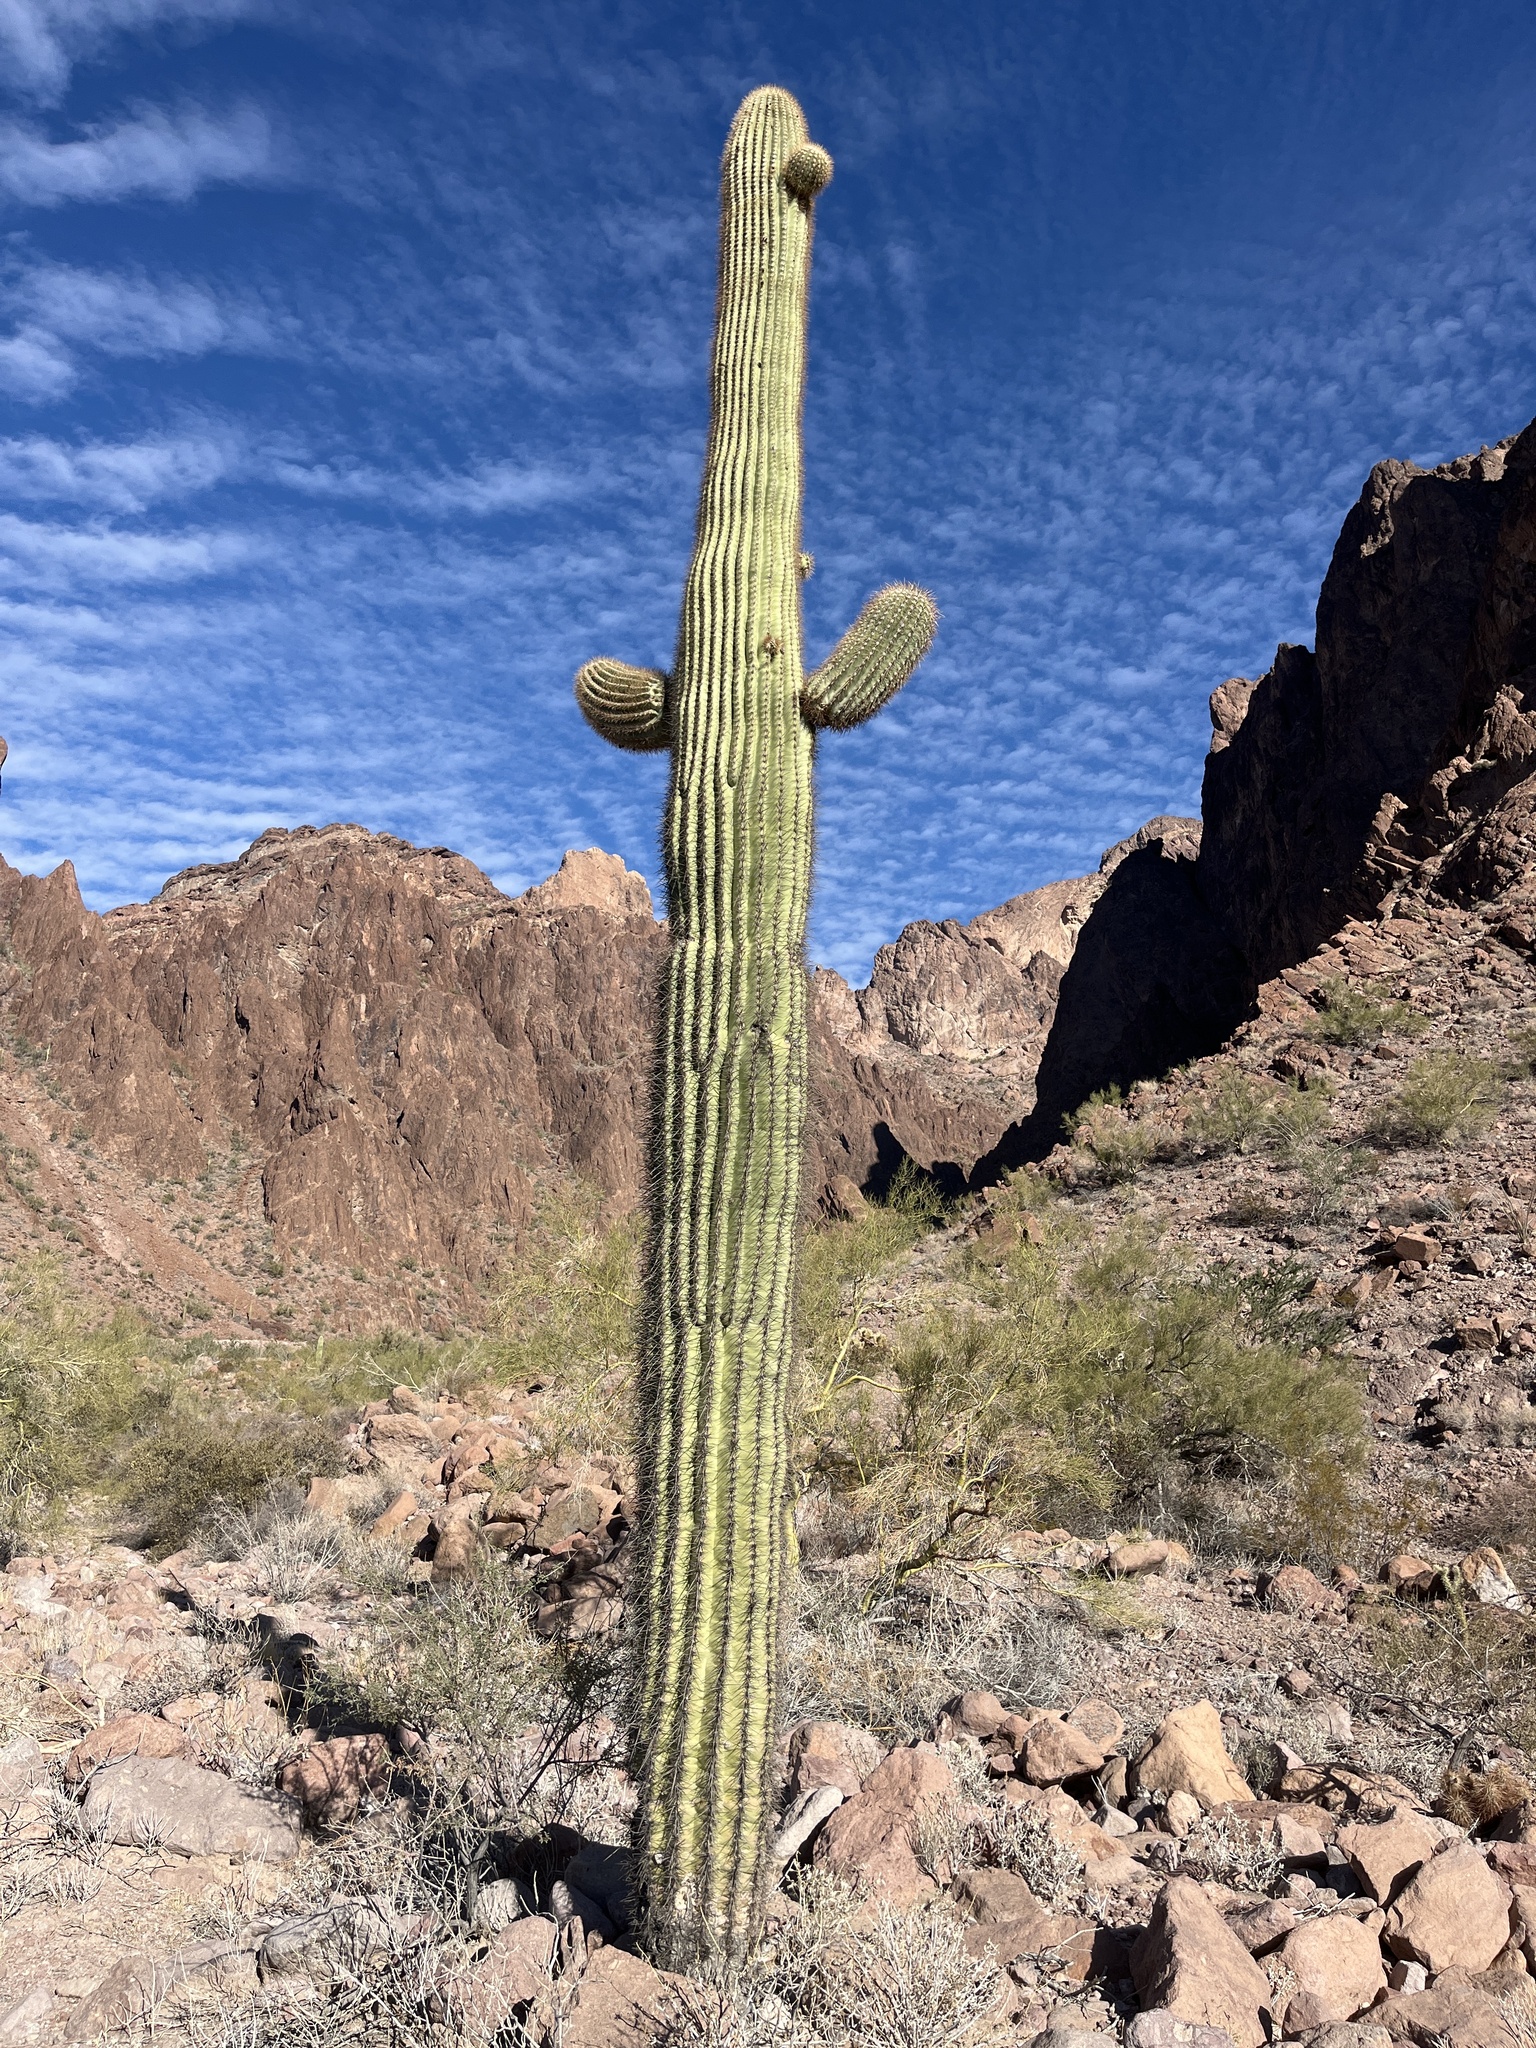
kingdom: Plantae
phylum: Tracheophyta
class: Magnoliopsida
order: Caryophyllales
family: Cactaceae
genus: Carnegiea
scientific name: Carnegiea gigantea
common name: Saguaro
